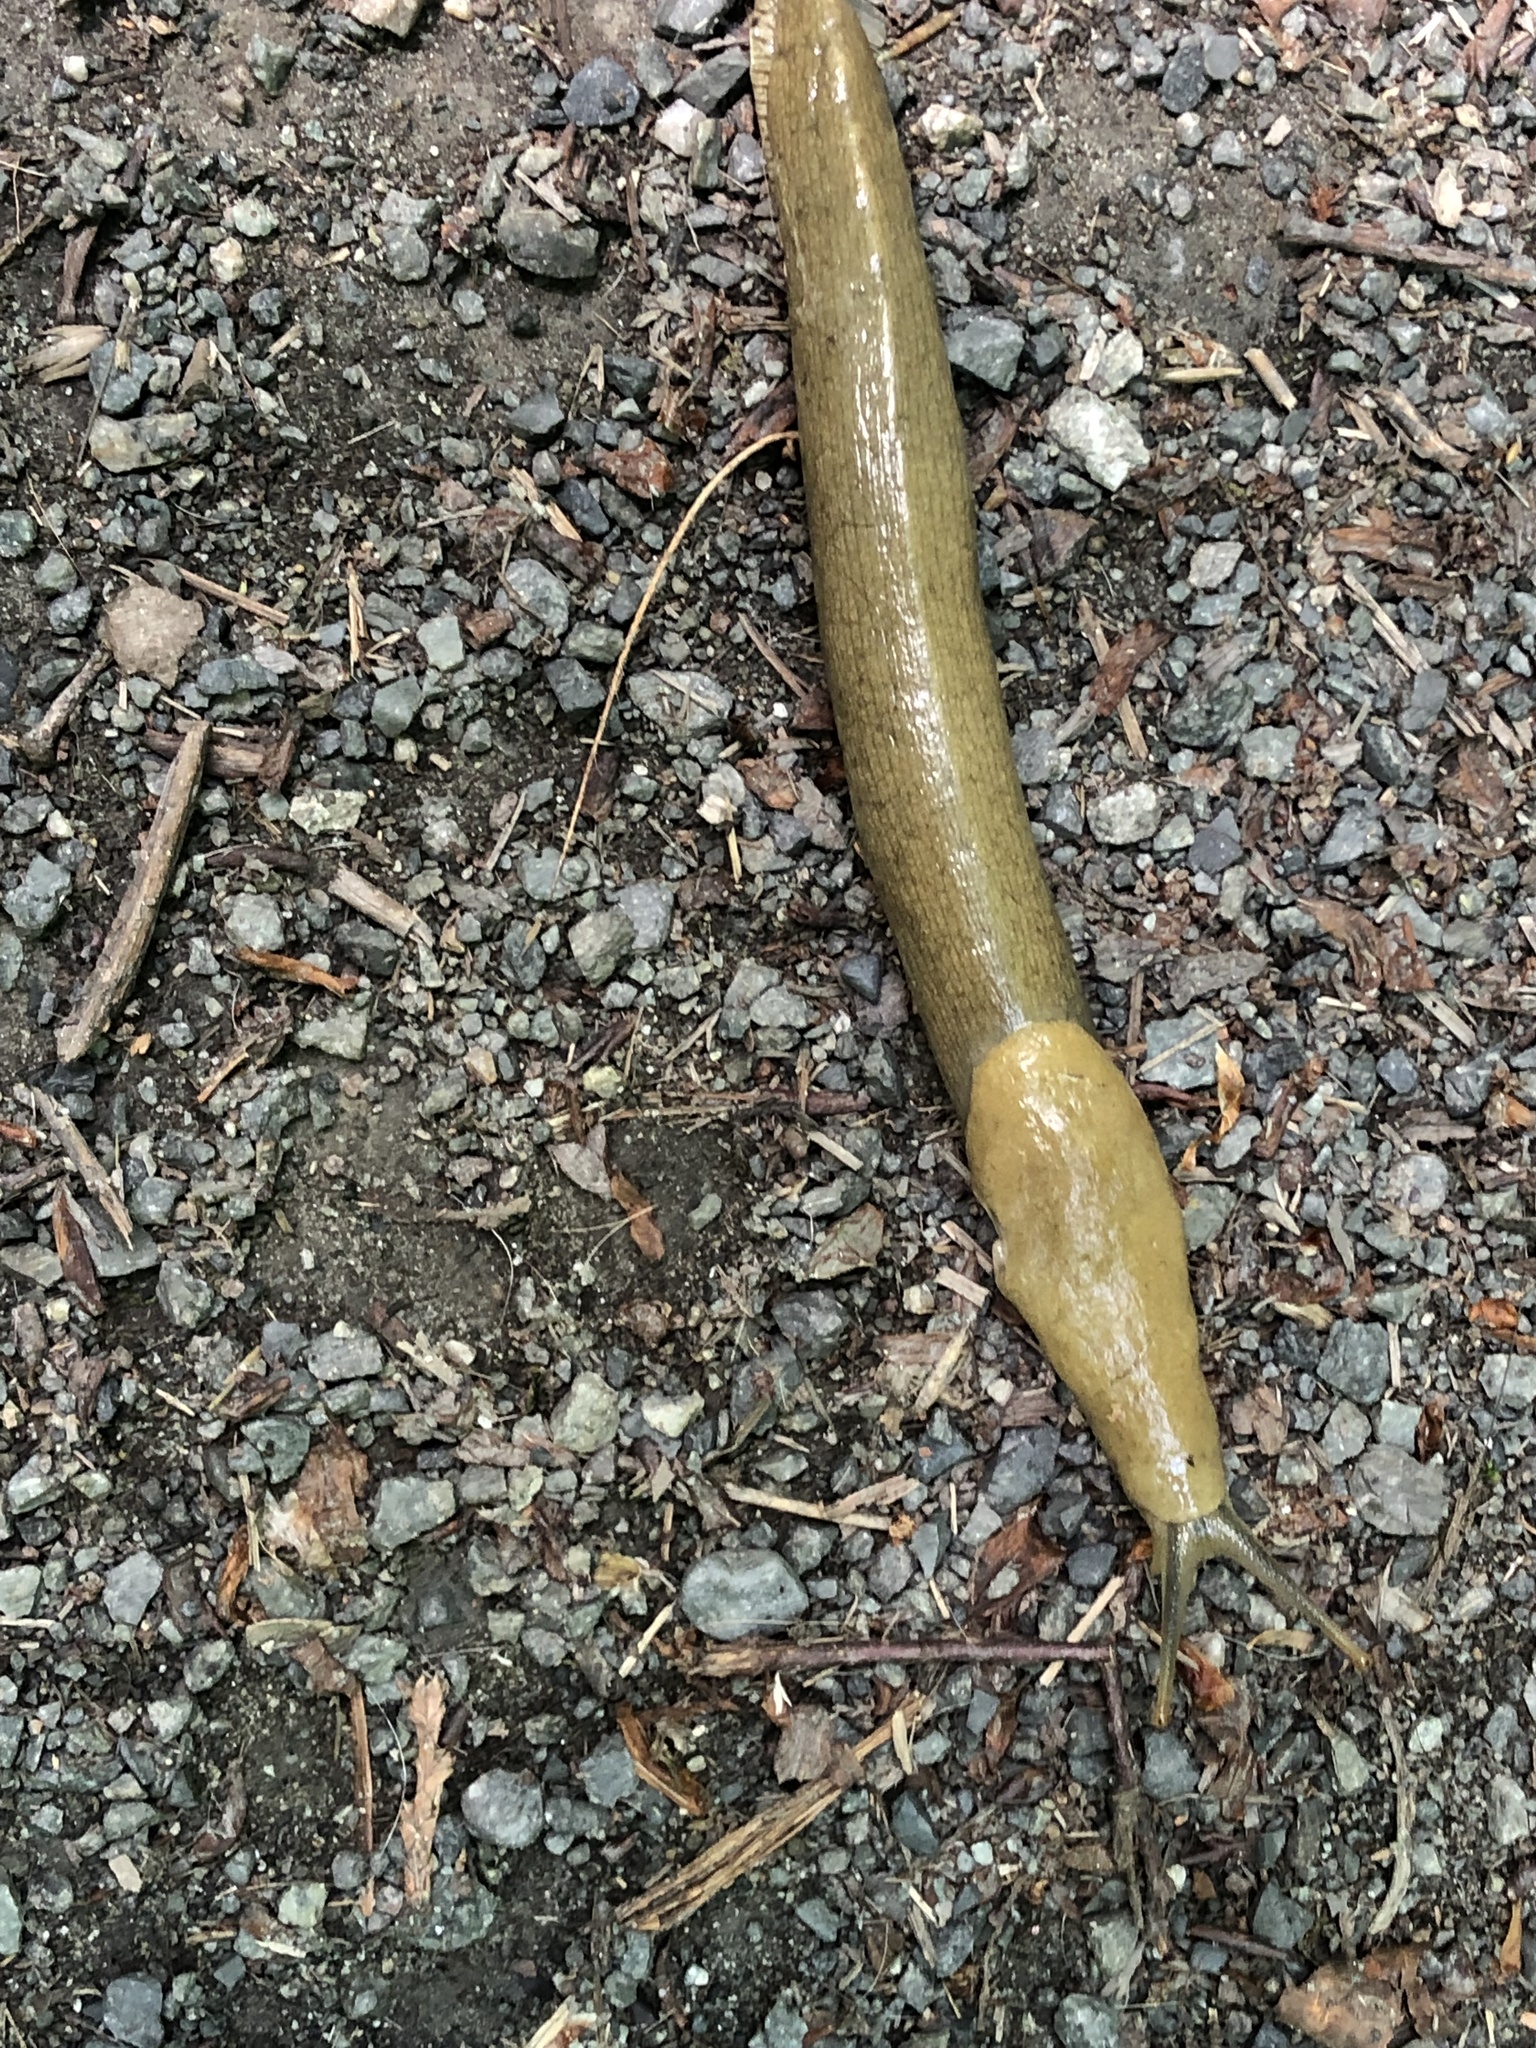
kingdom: Animalia
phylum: Mollusca
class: Gastropoda
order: Stylommatophora
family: Ariolimacidae
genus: Ariolimax
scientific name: Ariolimax columbianus
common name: Pacific banana slug
